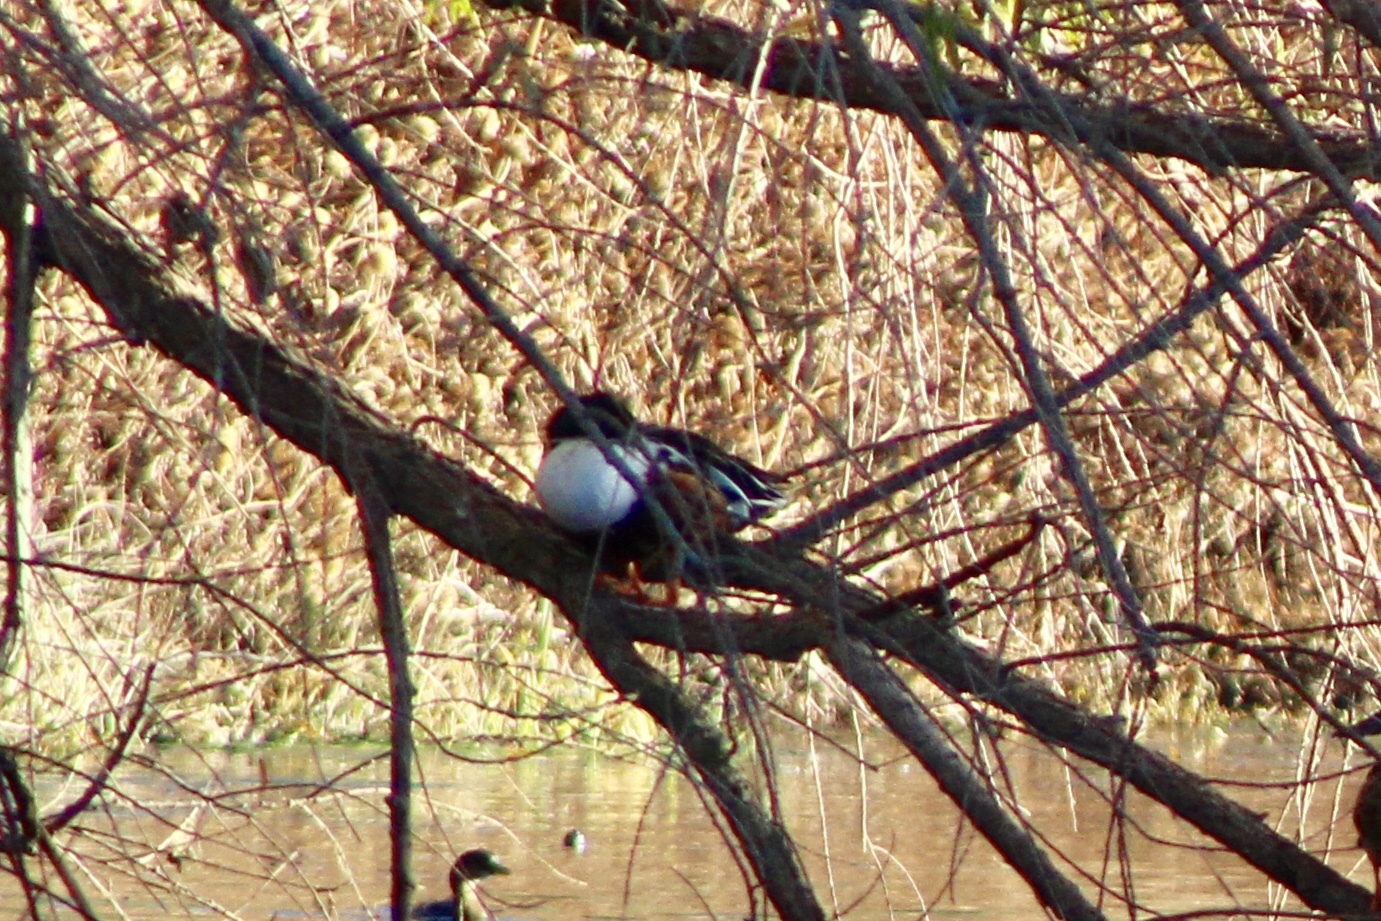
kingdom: Animalia
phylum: Chordata
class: Aves
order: Anseriformes
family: Anatidae
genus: Spatula
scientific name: Spatula clypeata
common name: Northern shoveler
